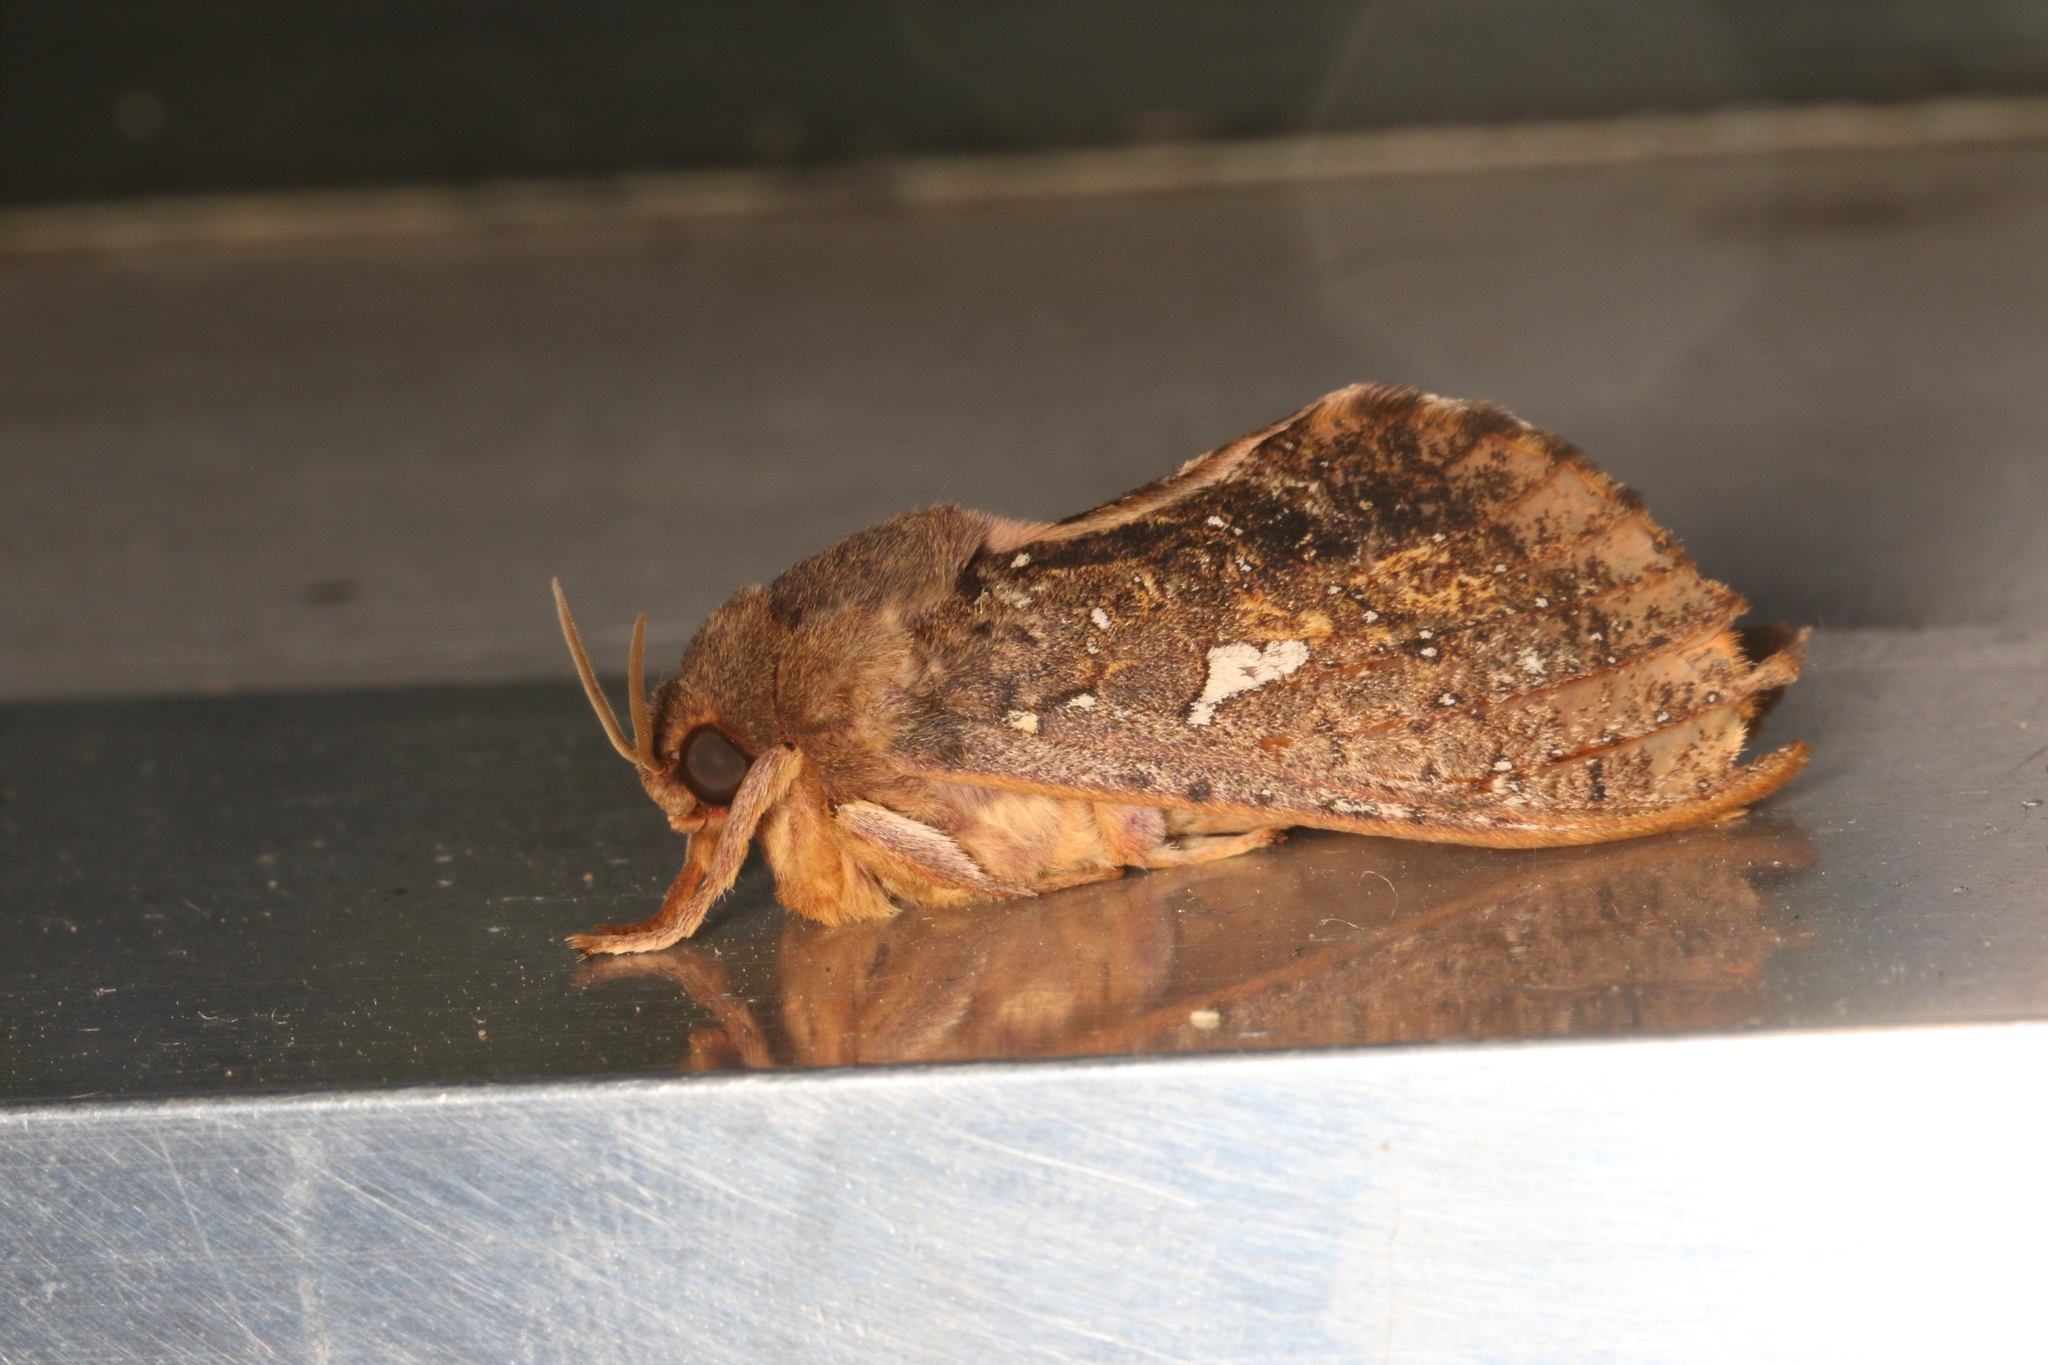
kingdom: Animalia
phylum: Arthropoda
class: Insecta
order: Lepidoptera
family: Hepialidae
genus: Dumbletonius
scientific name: Dumbletonius unimaculata
